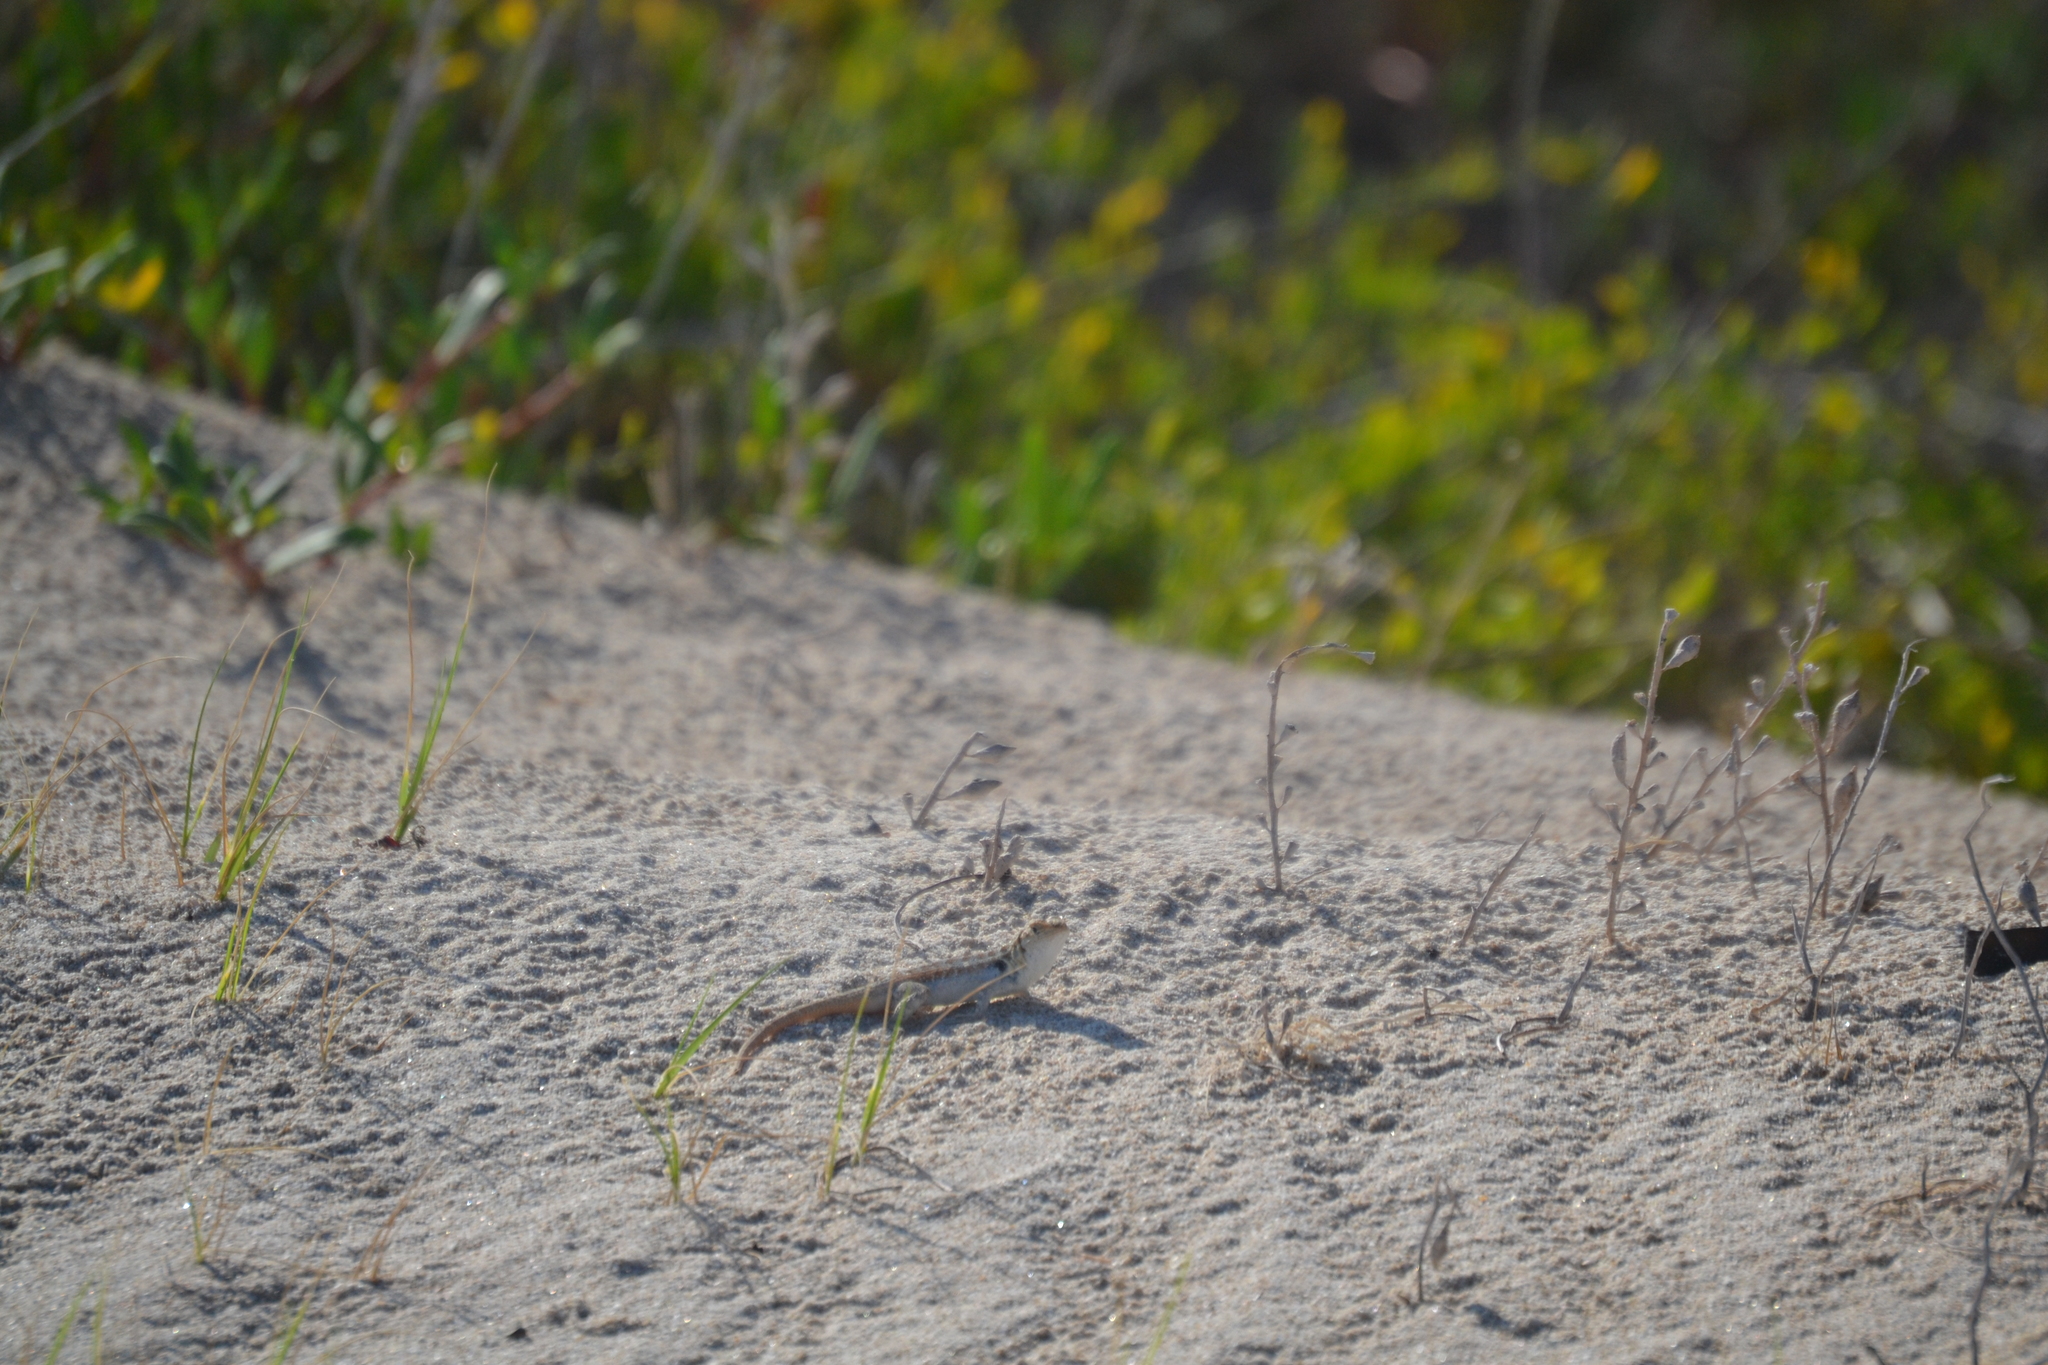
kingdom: Animalia
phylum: Chordata
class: Squamata
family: Phrynosomatidae
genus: Sceloporus
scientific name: Sceloporus cozumelae
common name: Cozumel spiny lizard
